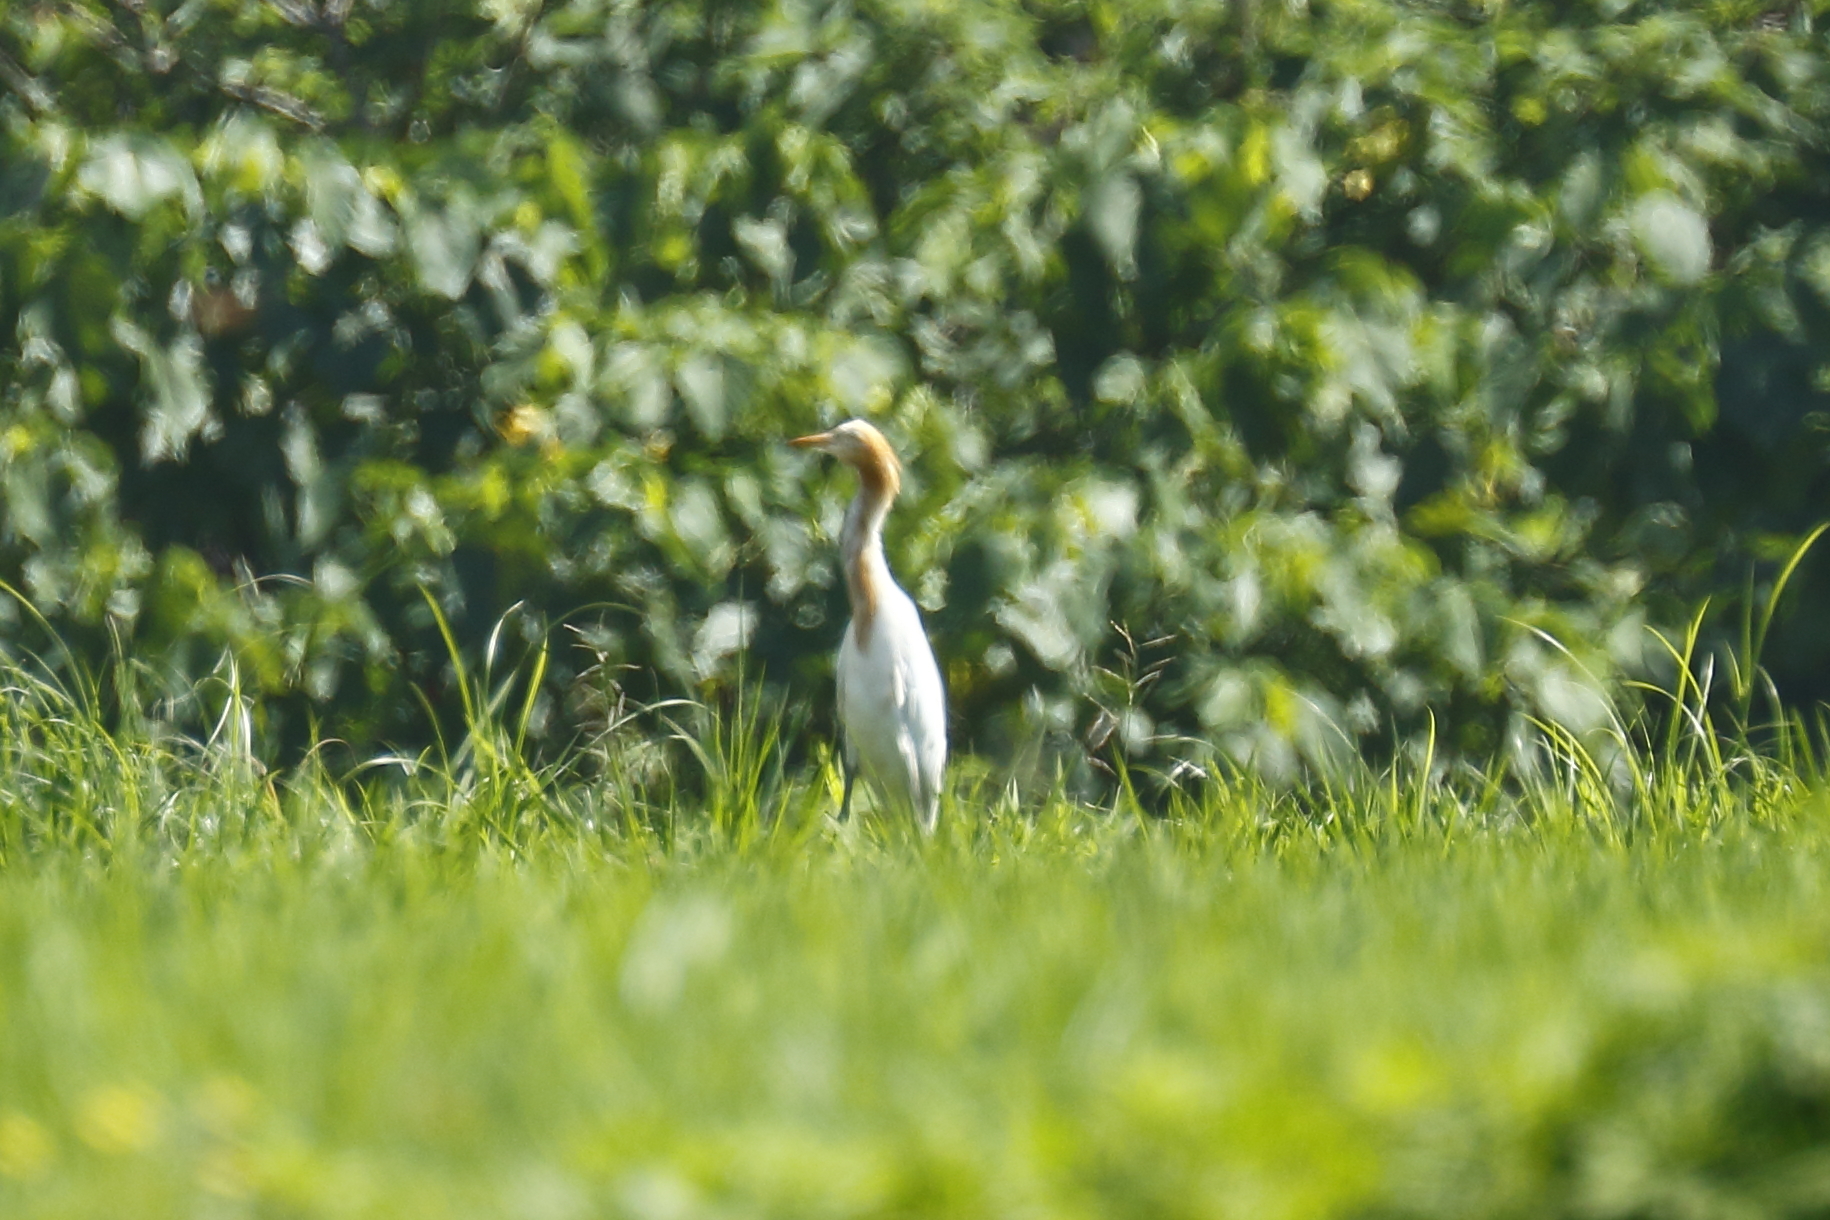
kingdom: Animalia
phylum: Chordata
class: Aves
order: Pelecaniformes
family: Ardeidae
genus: Bubulcus
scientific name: Bubulcus coromandus
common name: Eastern cattle egret
